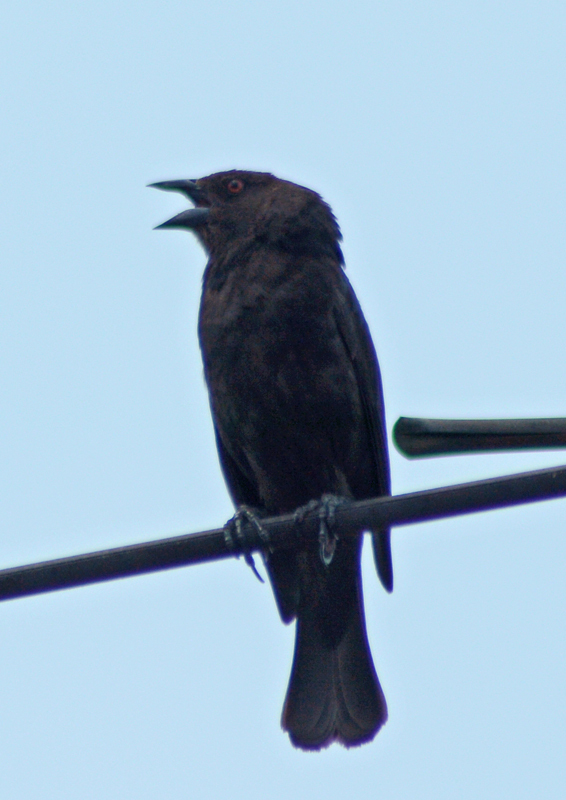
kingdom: Animalia
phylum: Chordata
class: Aves
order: Passeriformes
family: Icteridae
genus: Molothrus
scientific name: Molothrus aeneus
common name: Bronzed cowbird
